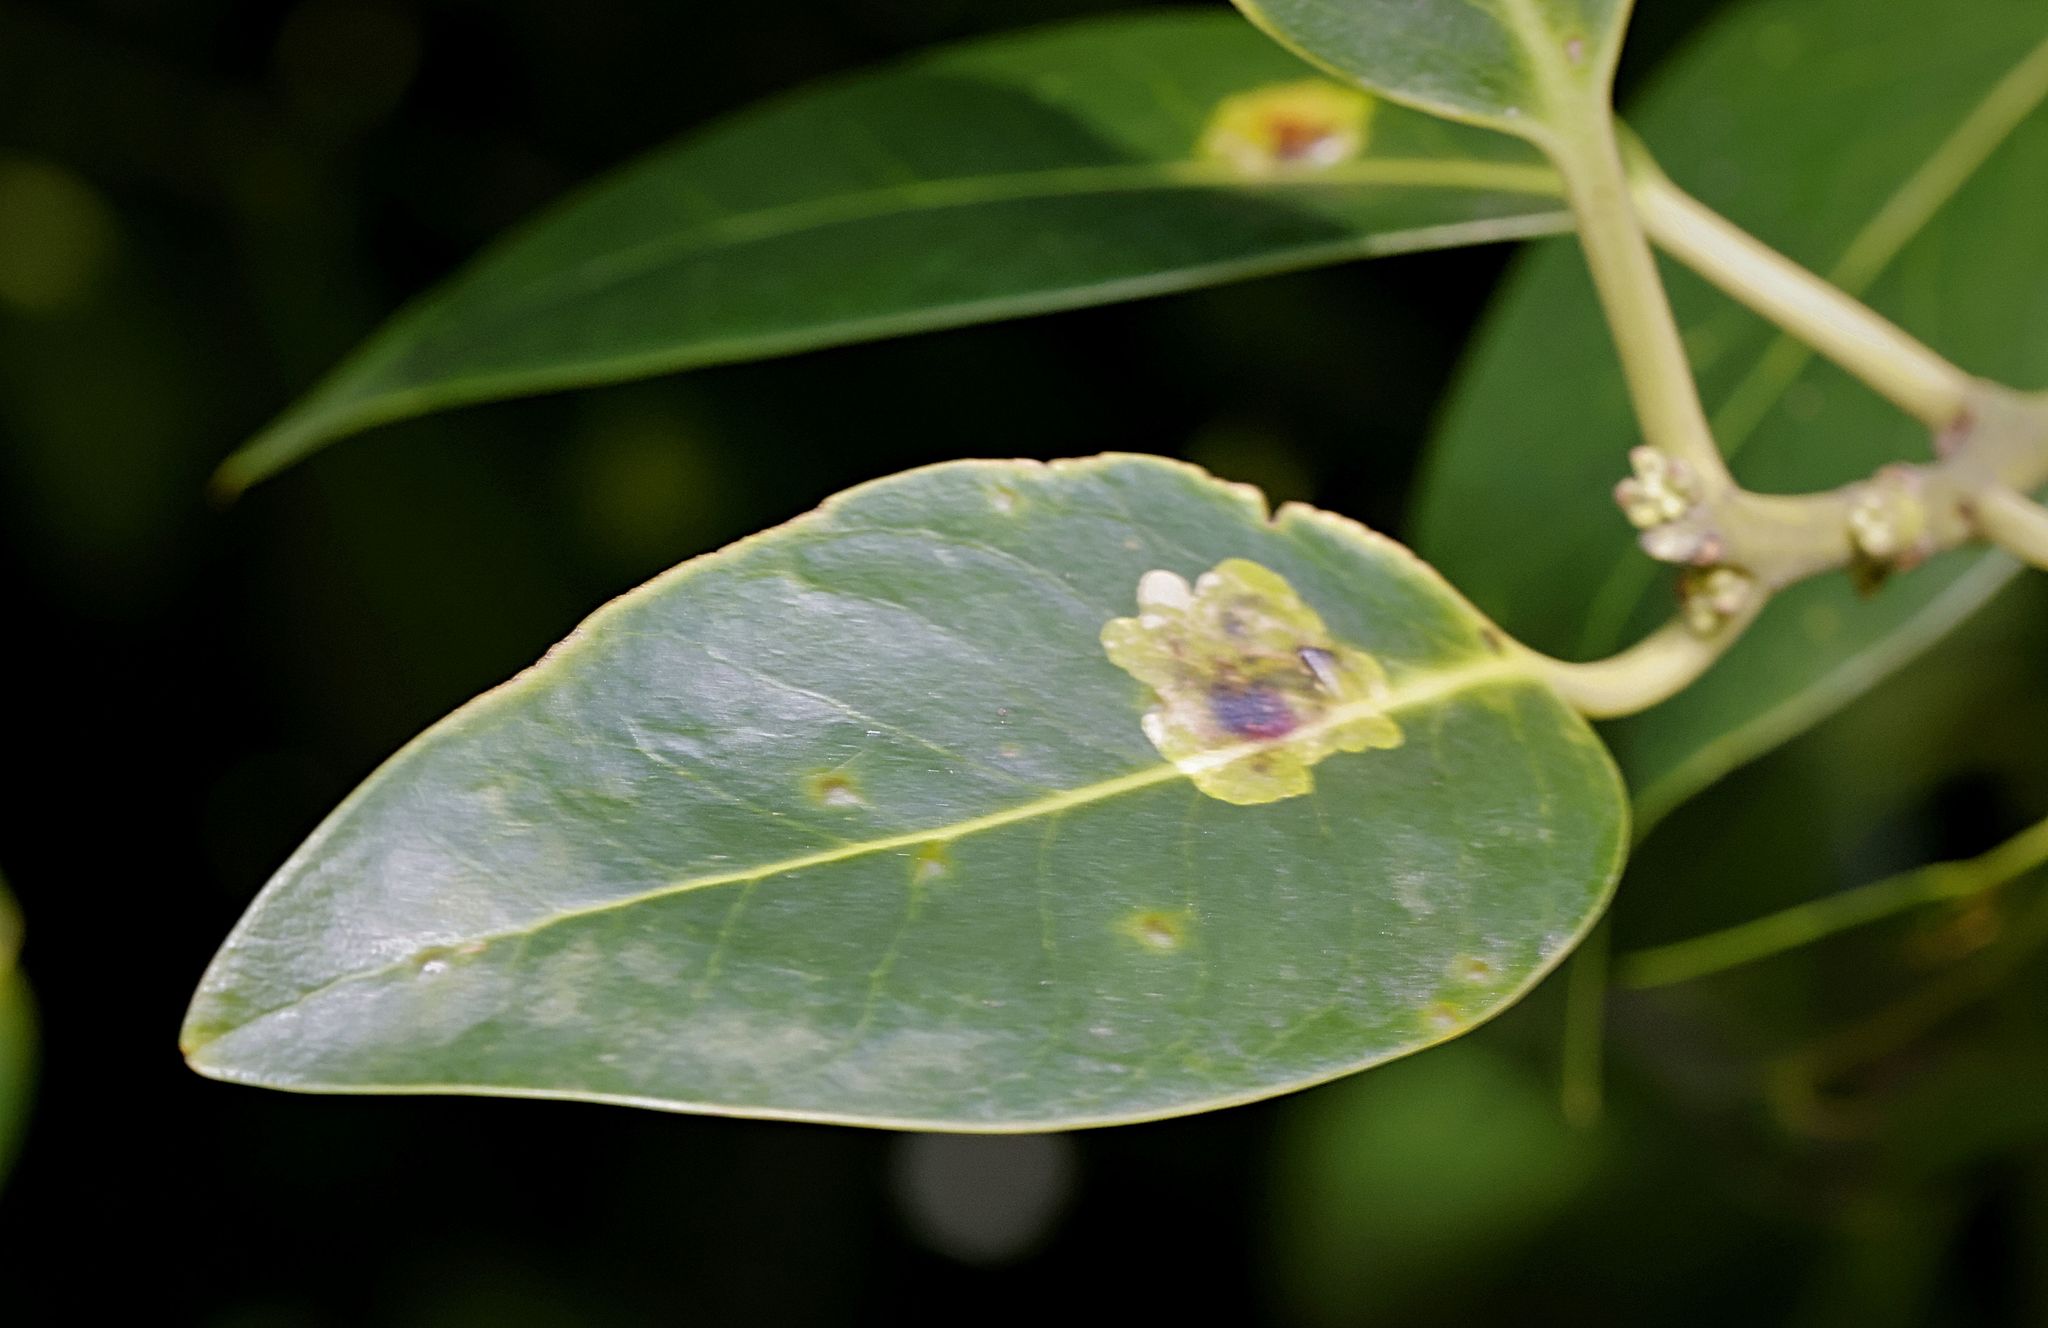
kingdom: Animalia
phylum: Arthropoda
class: Insecta
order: Diptera
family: Agromyzidae
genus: Phytomyza
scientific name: Phytomyza ilicis
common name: Holly leafminer
